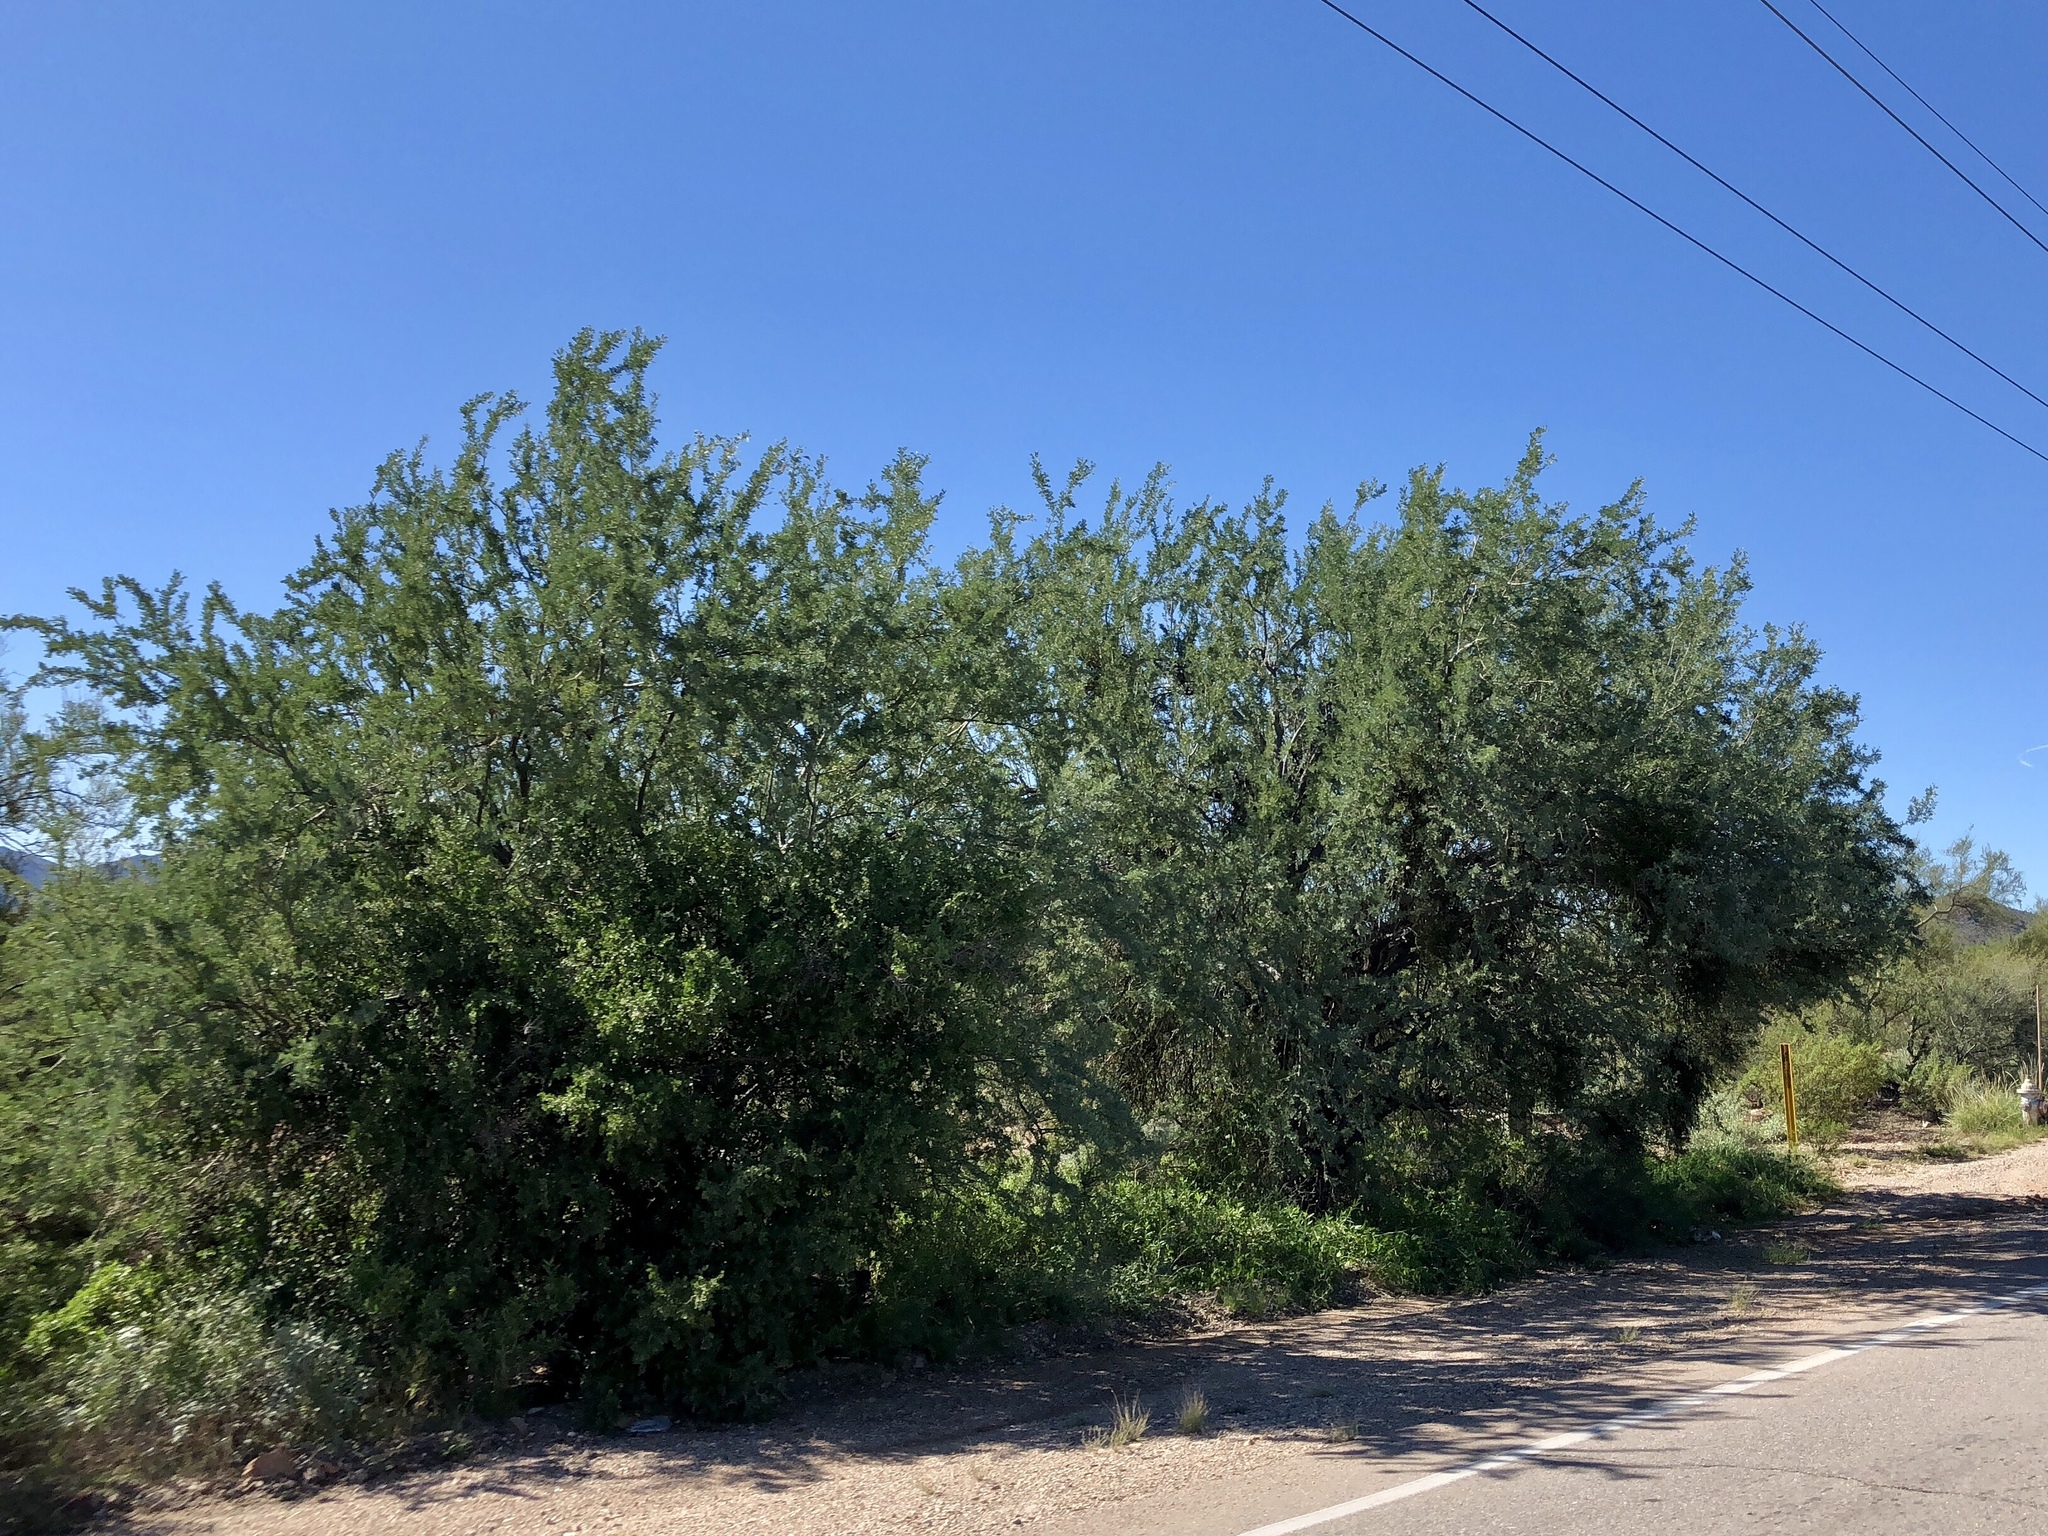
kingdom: Plantae
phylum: Tracheophyta
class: Magnoliopsida
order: Fabales
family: Fabaceae
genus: Olneya
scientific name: Olneya tesota
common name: Desert ironwood
